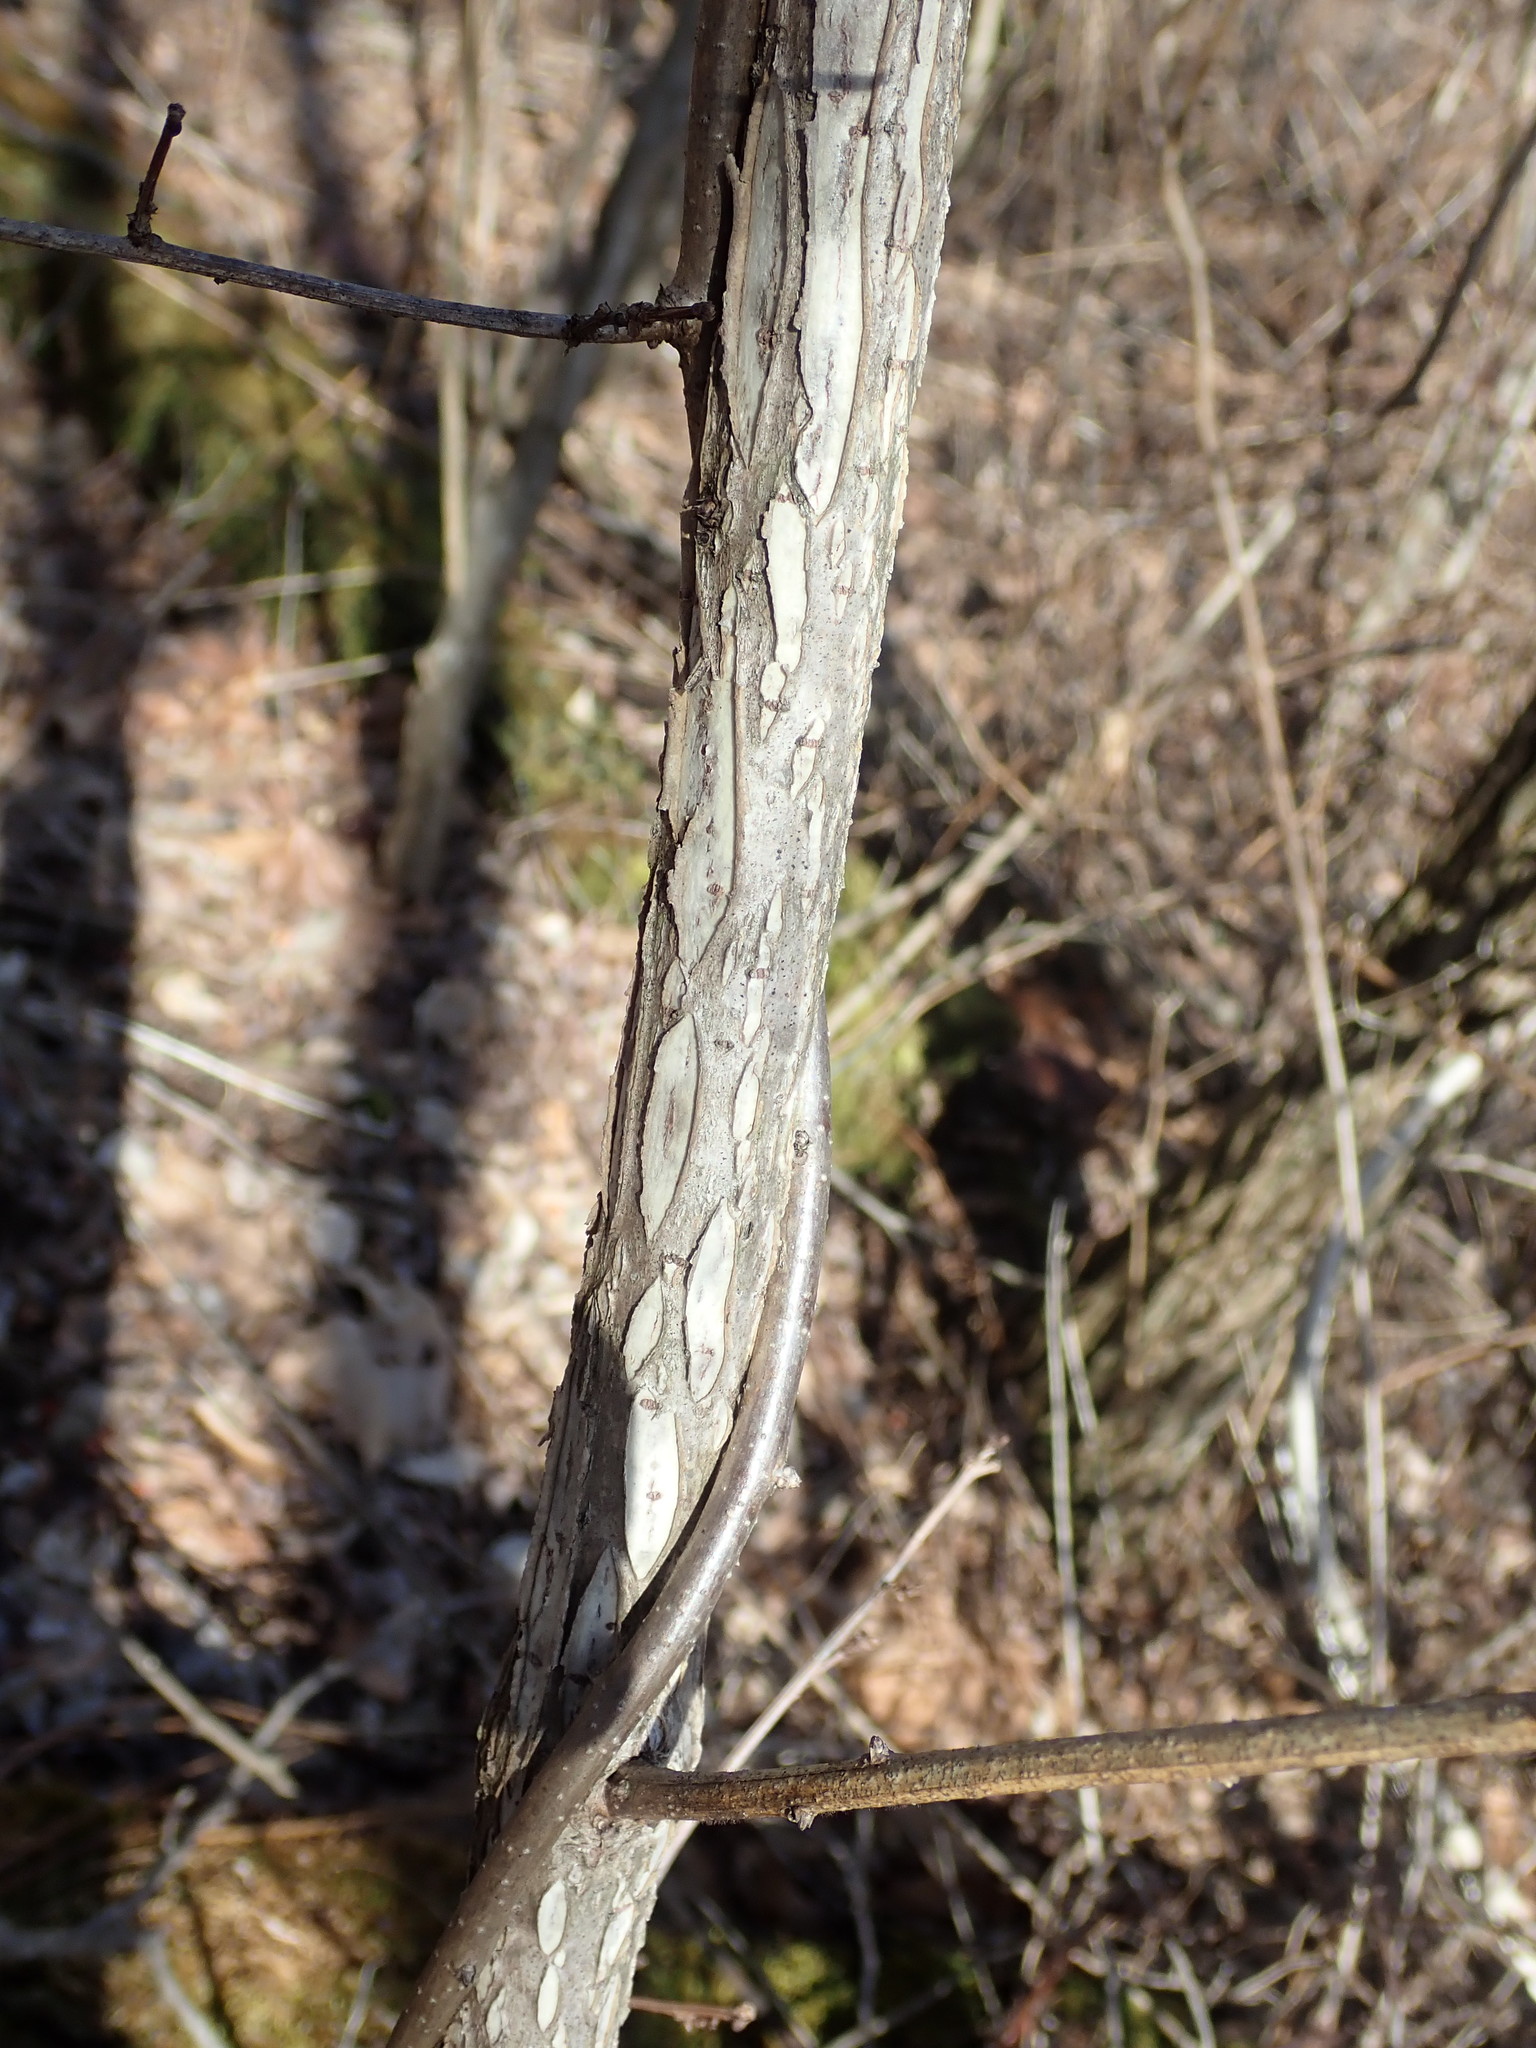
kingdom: Plantae
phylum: Tracheophyta
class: Magnoliopsida
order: Celastrales
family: Celastraceae
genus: Celastrus
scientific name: Celastrus orbiculatus
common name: Oriental bittersweet
